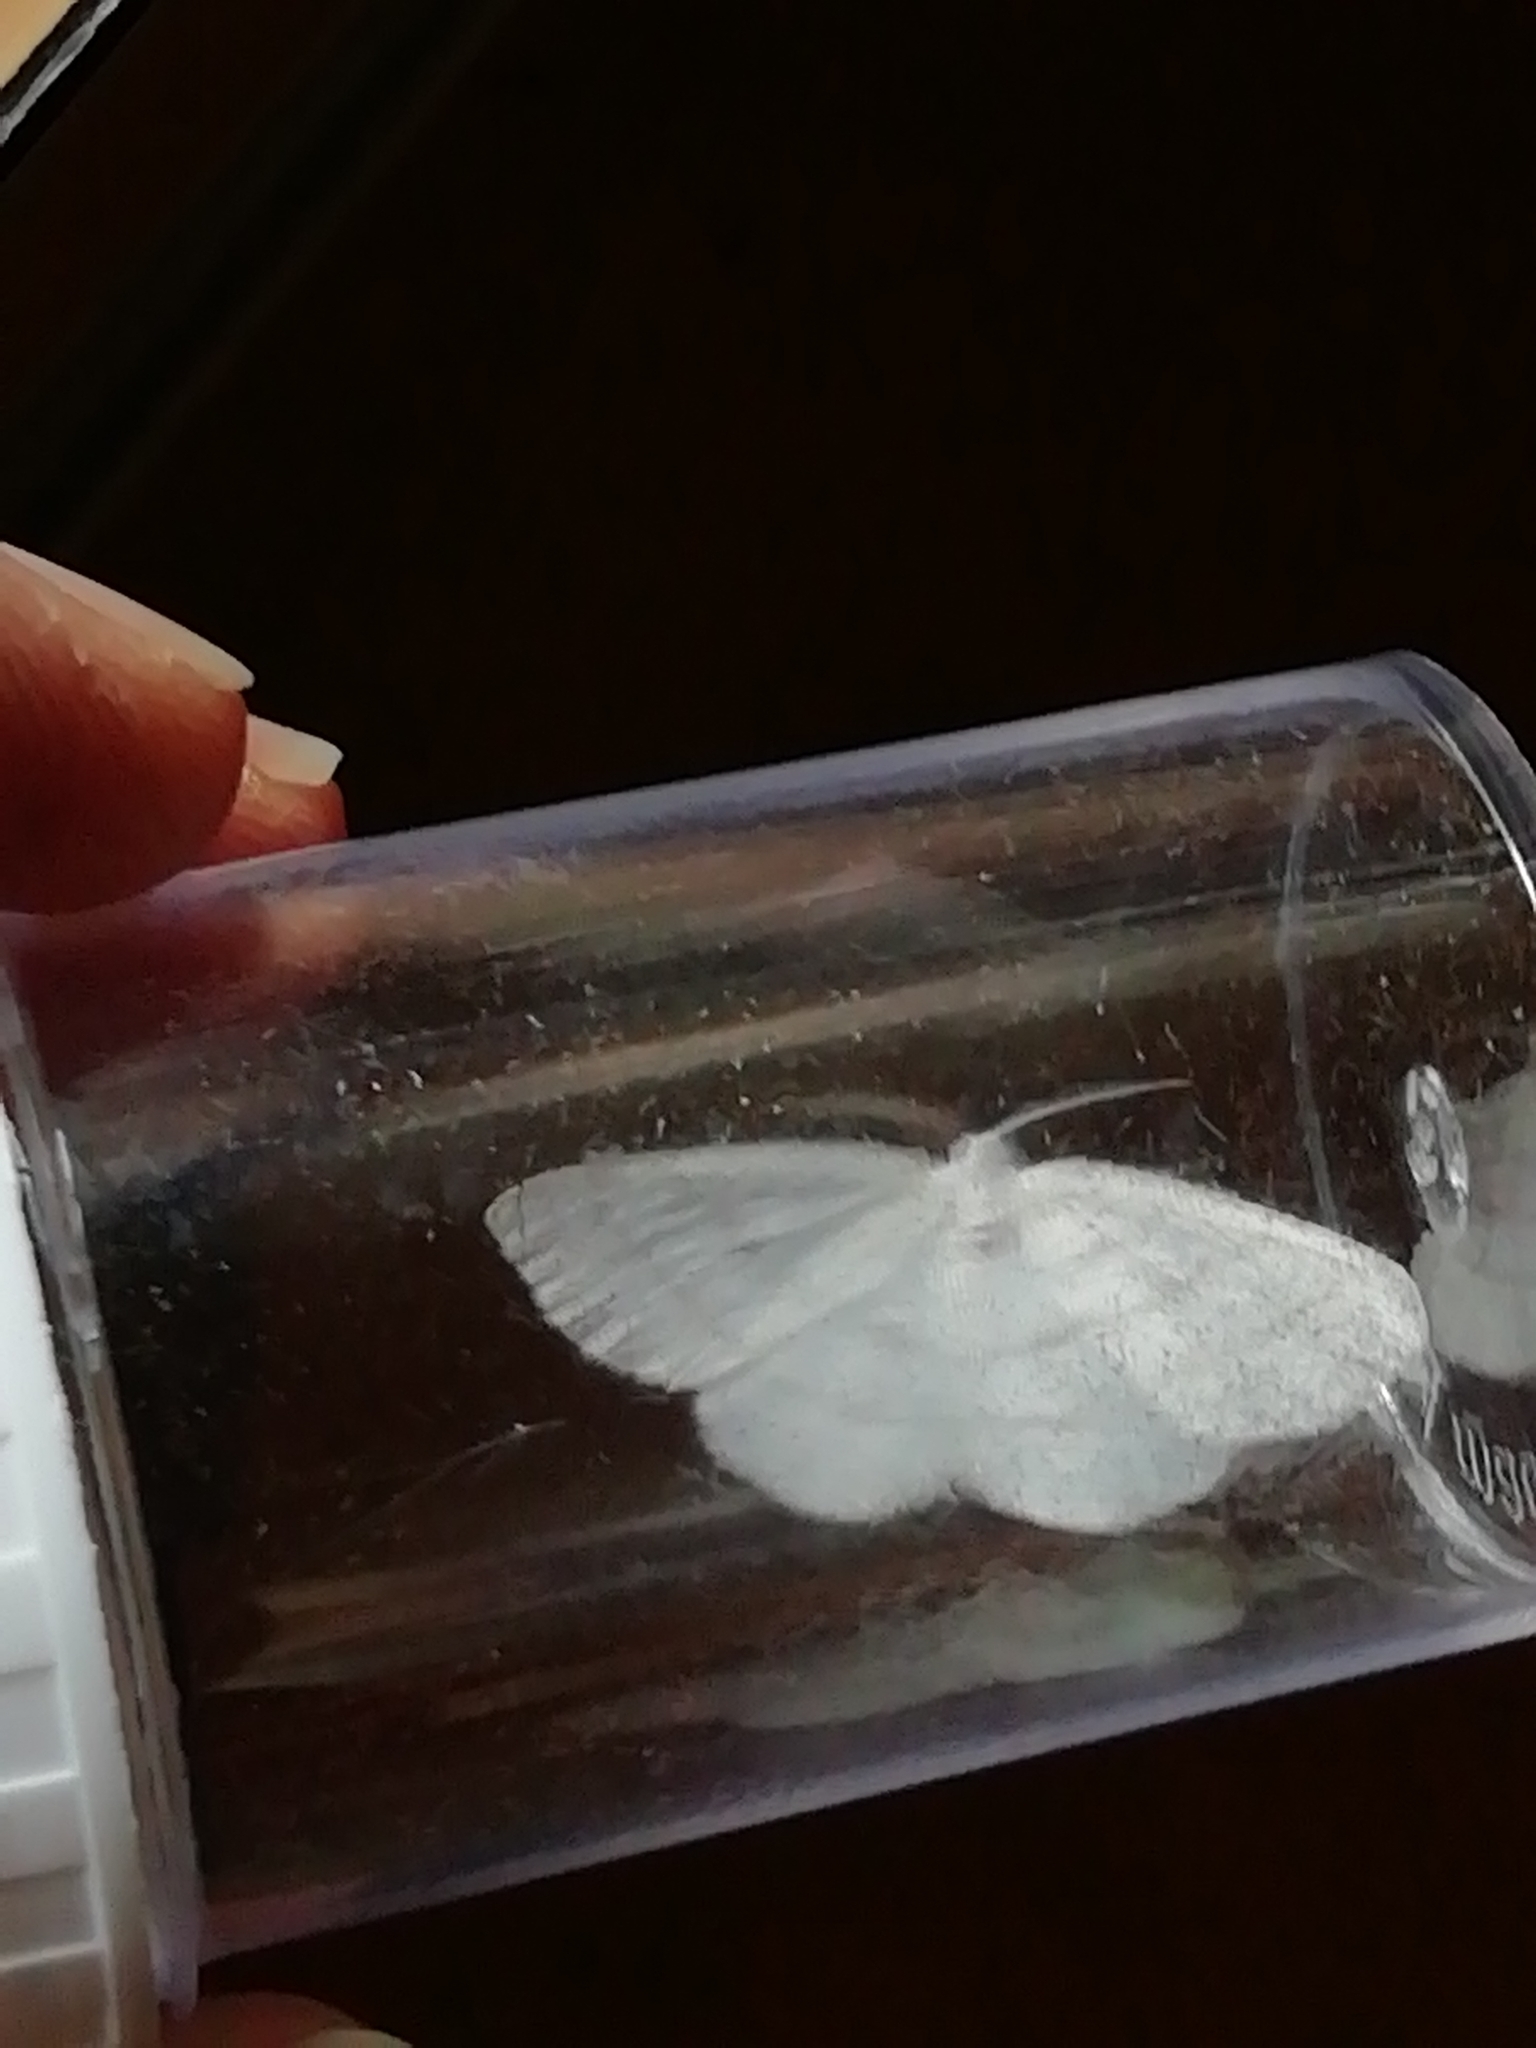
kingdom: Animalia
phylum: Arthropoda
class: Insecta
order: Lepidoptera
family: Geometridae
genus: Cabera
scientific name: Cabera pusaria
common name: Common white wave
